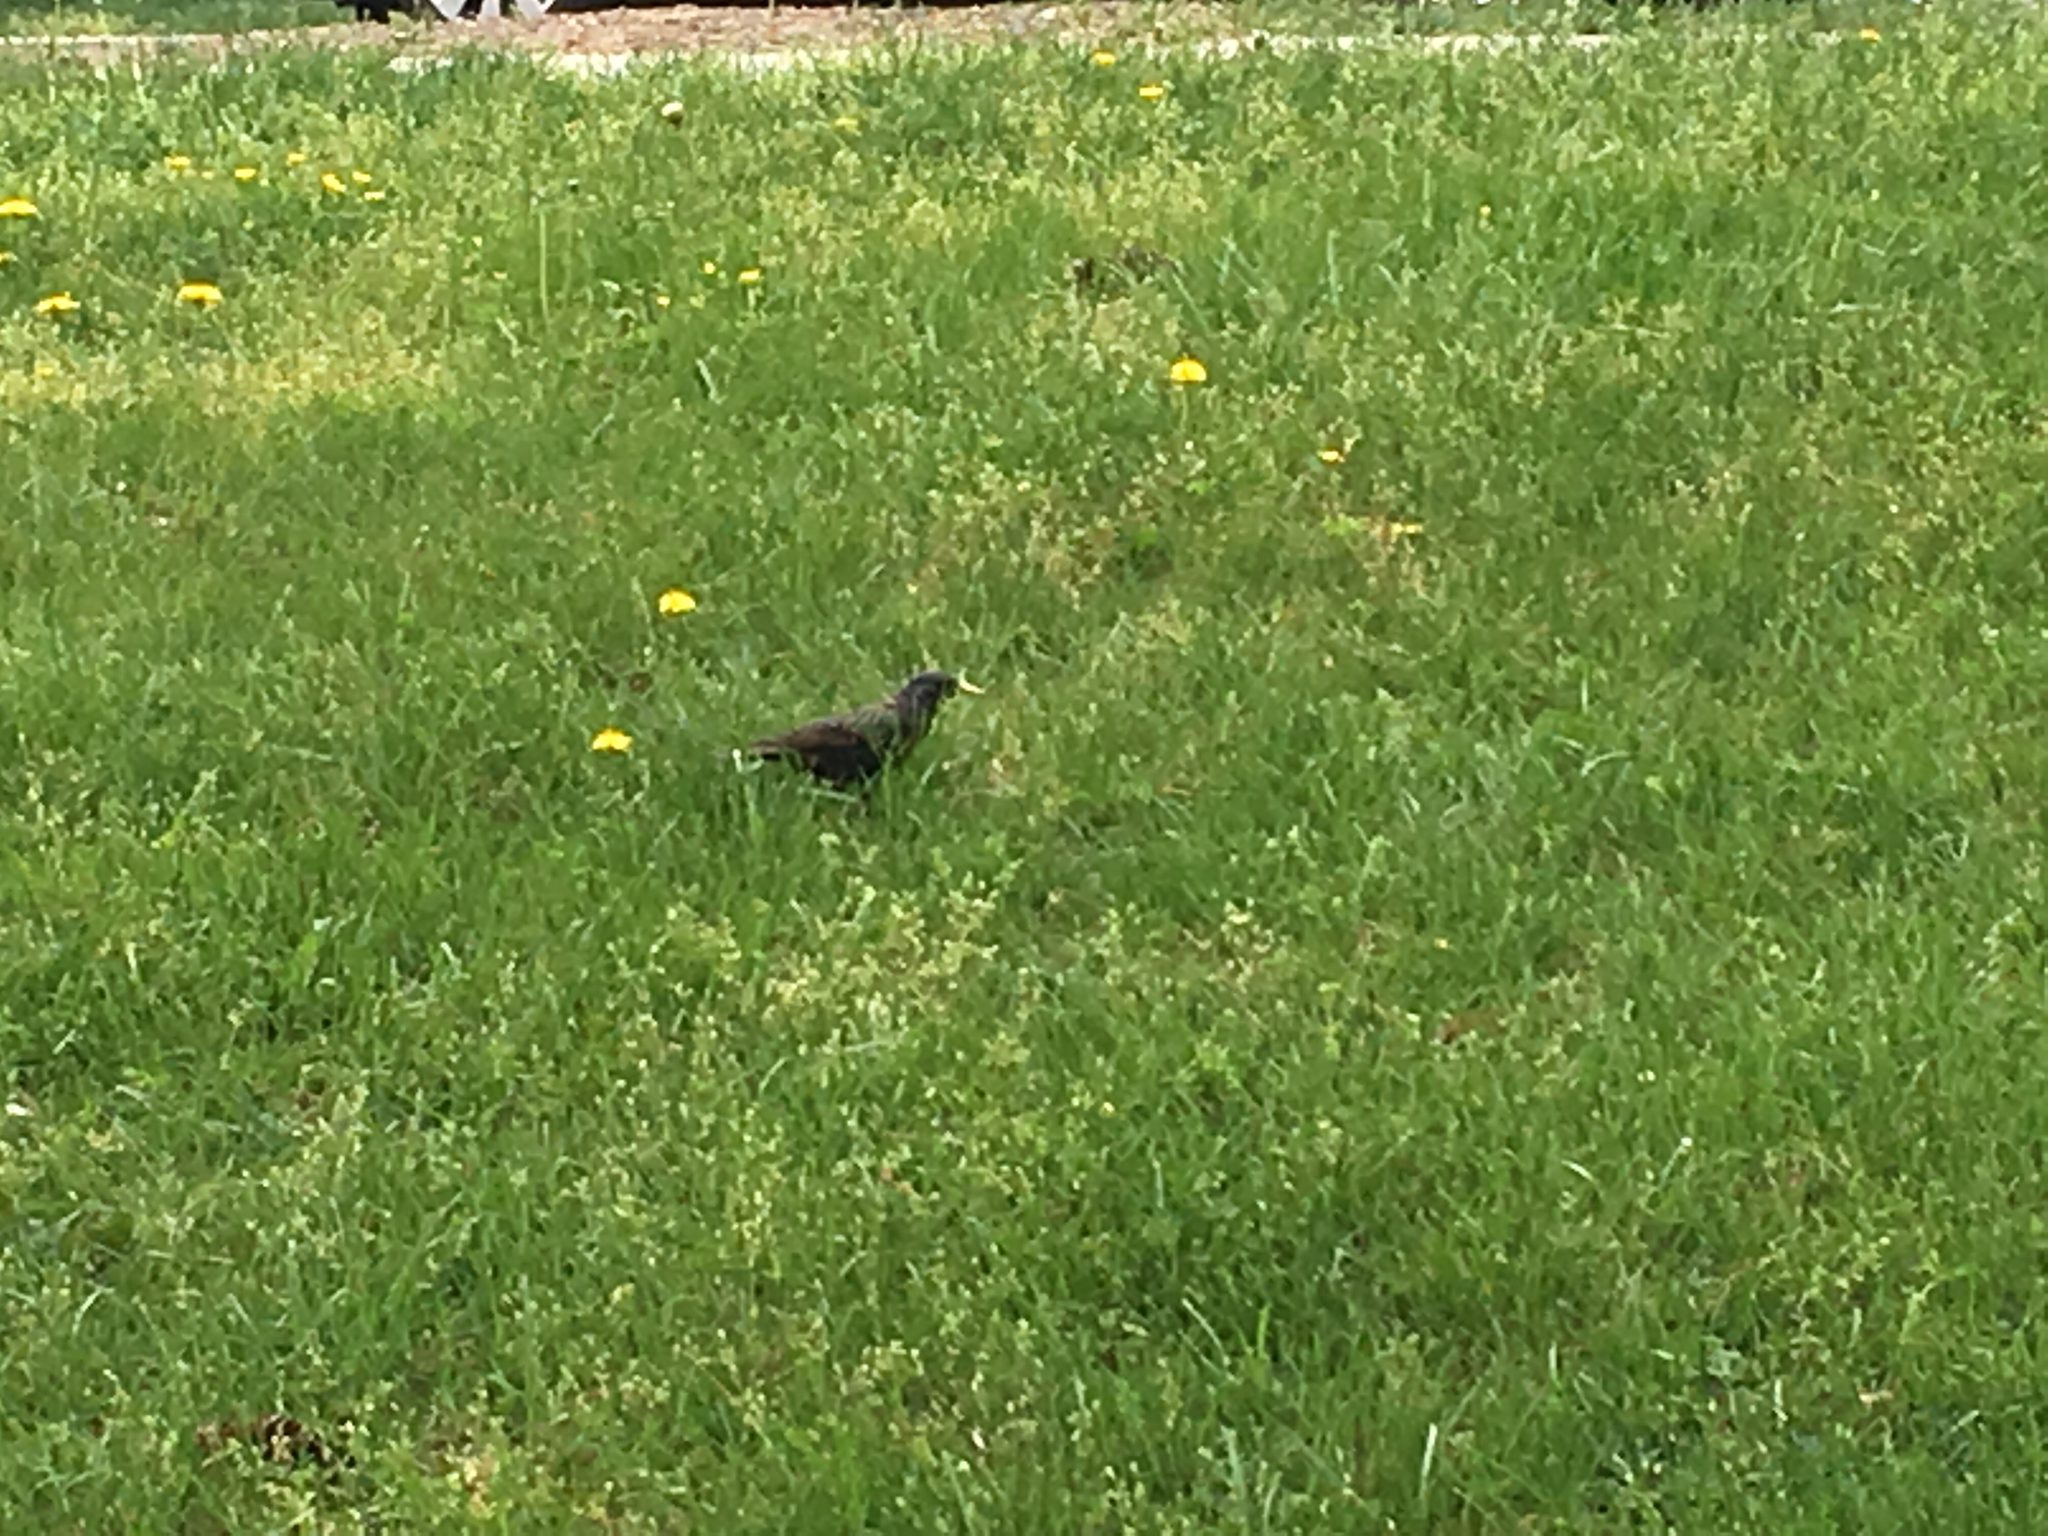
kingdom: Animalia
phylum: Chordata
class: Aves
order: Passeriformes
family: Sturnidae
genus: Sturnus
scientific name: Sturnus vulgaris
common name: Common starling
